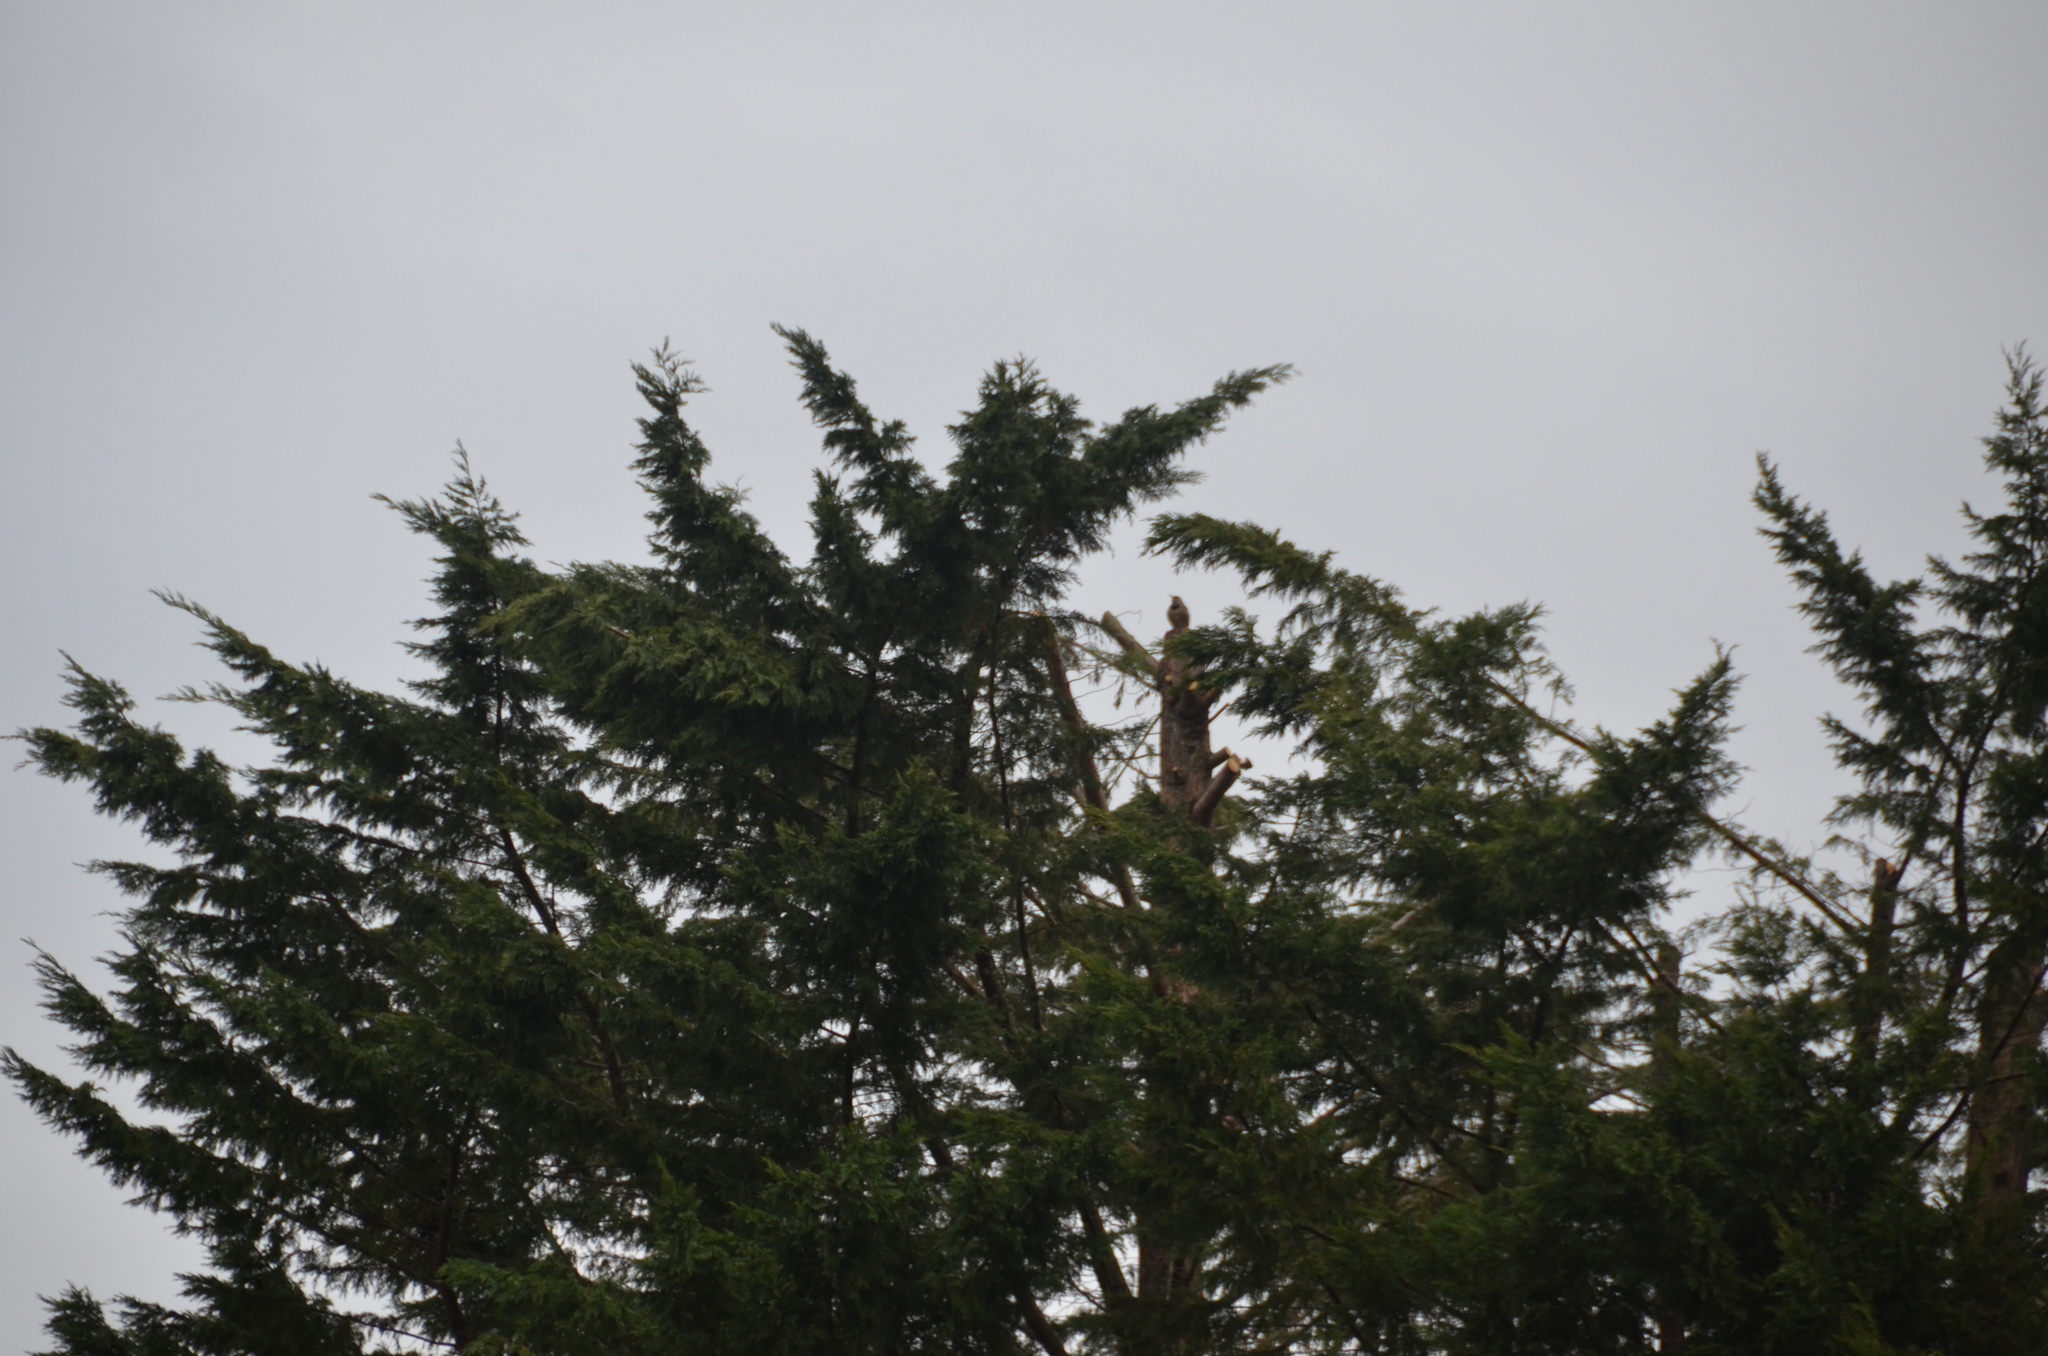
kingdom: Animalia
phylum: Chordata
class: Aves
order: Piciformes
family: Picidae
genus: Colaptes
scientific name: Colaptes auratus
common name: Northern flicker
